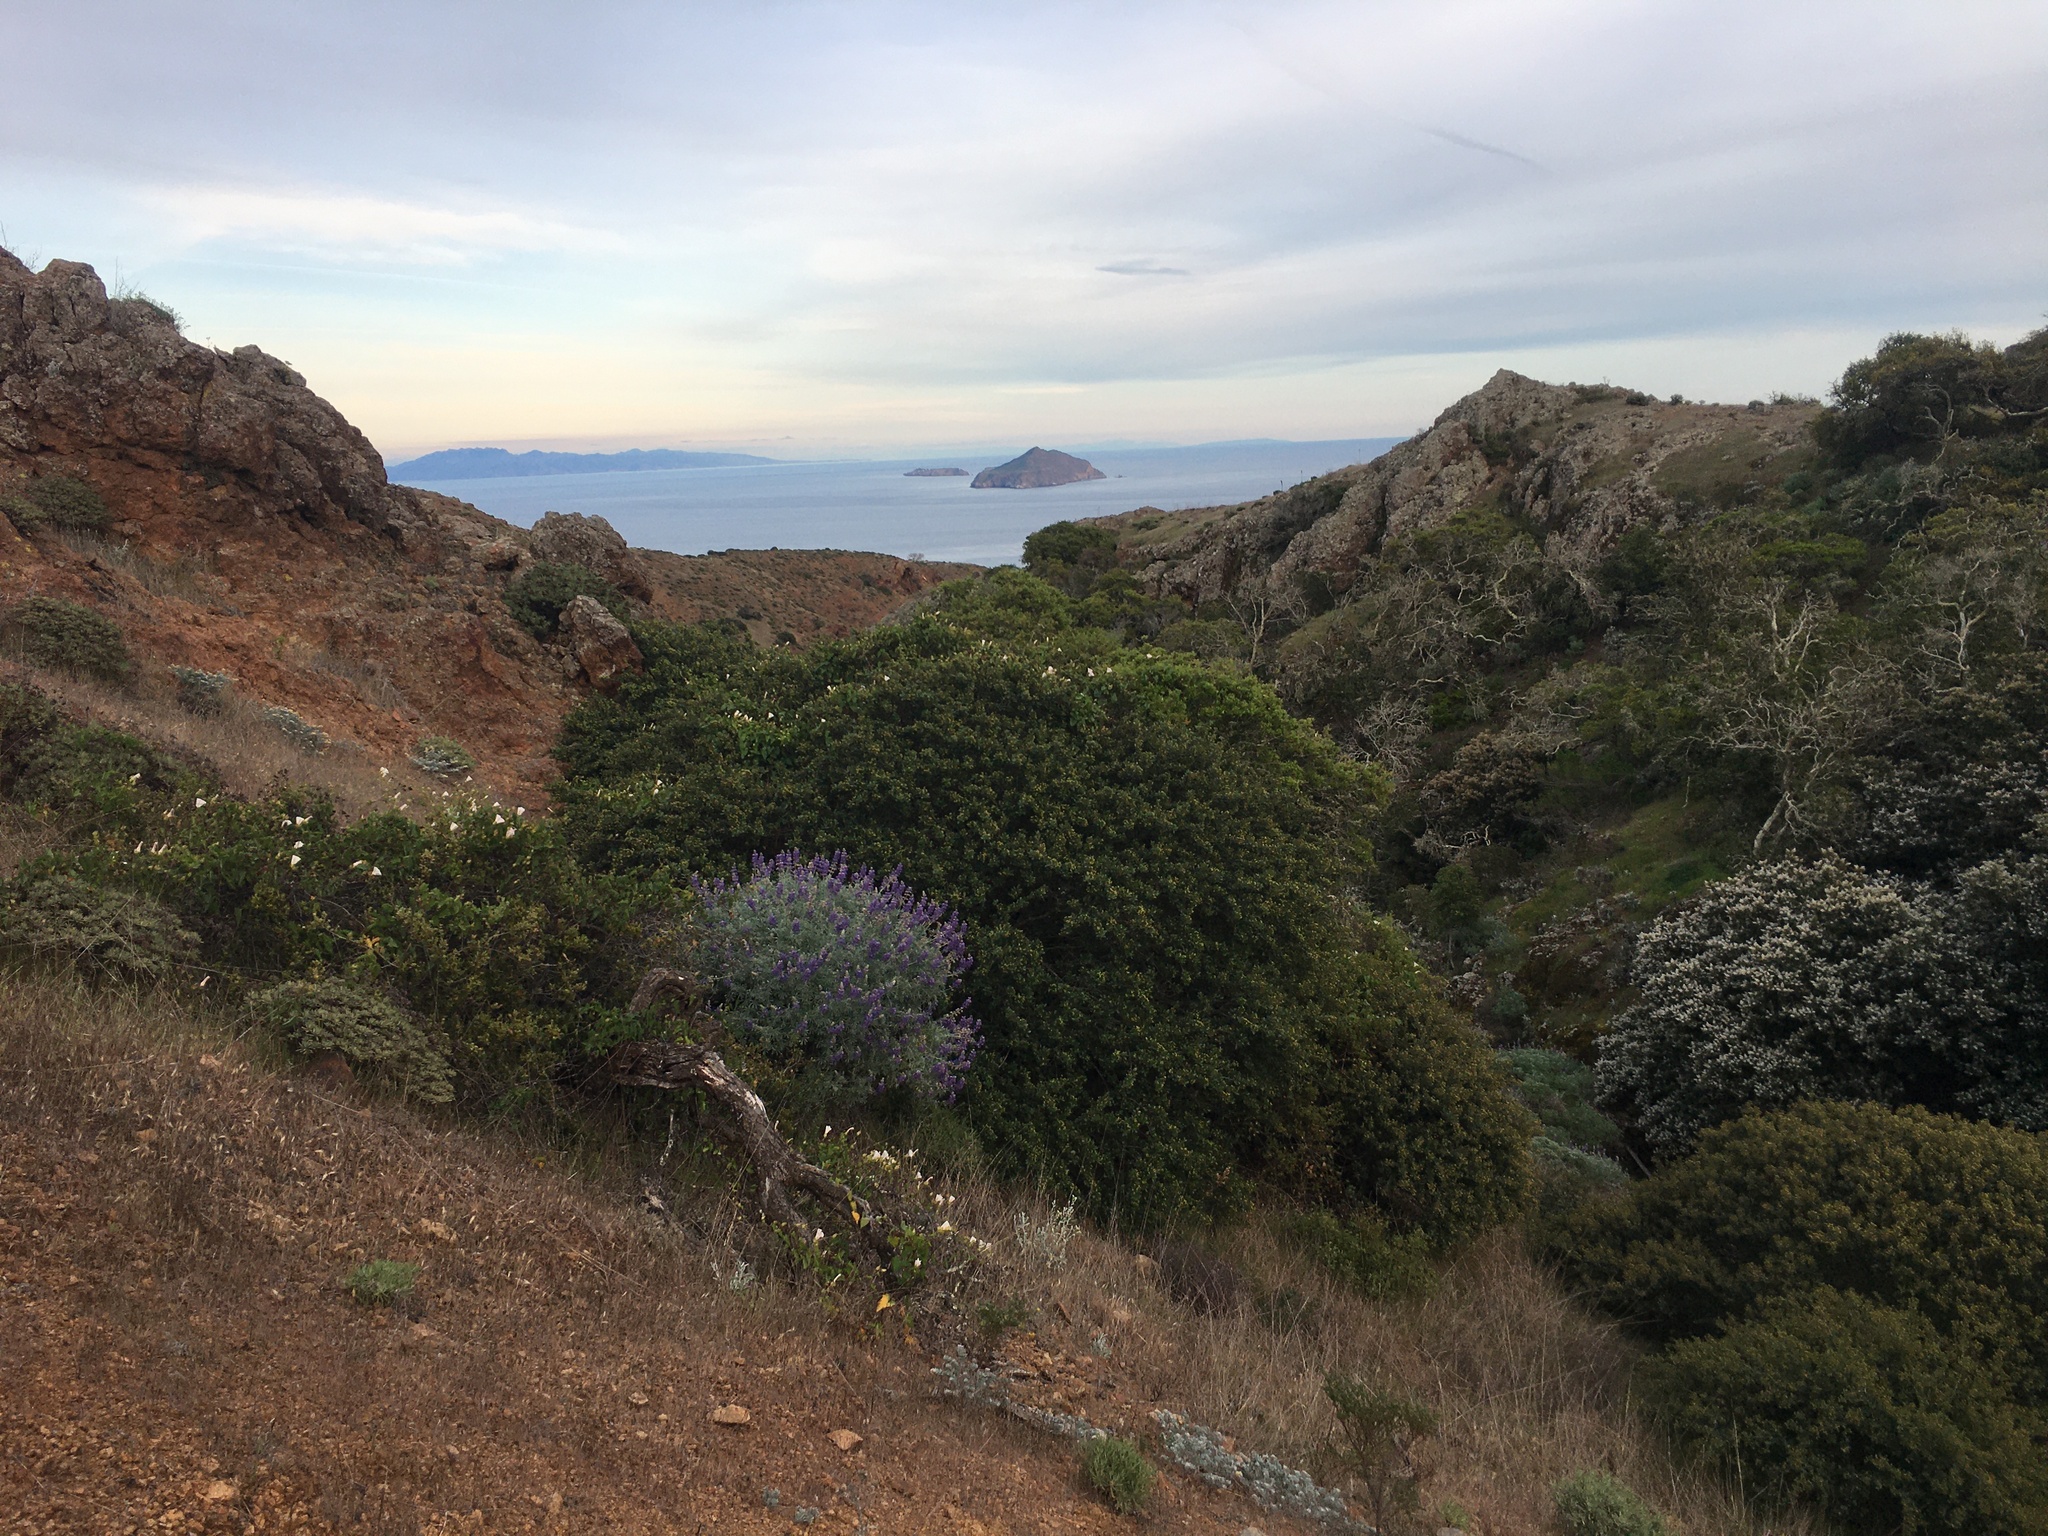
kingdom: Plantae
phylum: Tracheophyta
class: Magnoliopsida
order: Fabales
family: Fabaceae
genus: Lupinus
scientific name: Lupinus albifrons
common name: Foothill lupine
